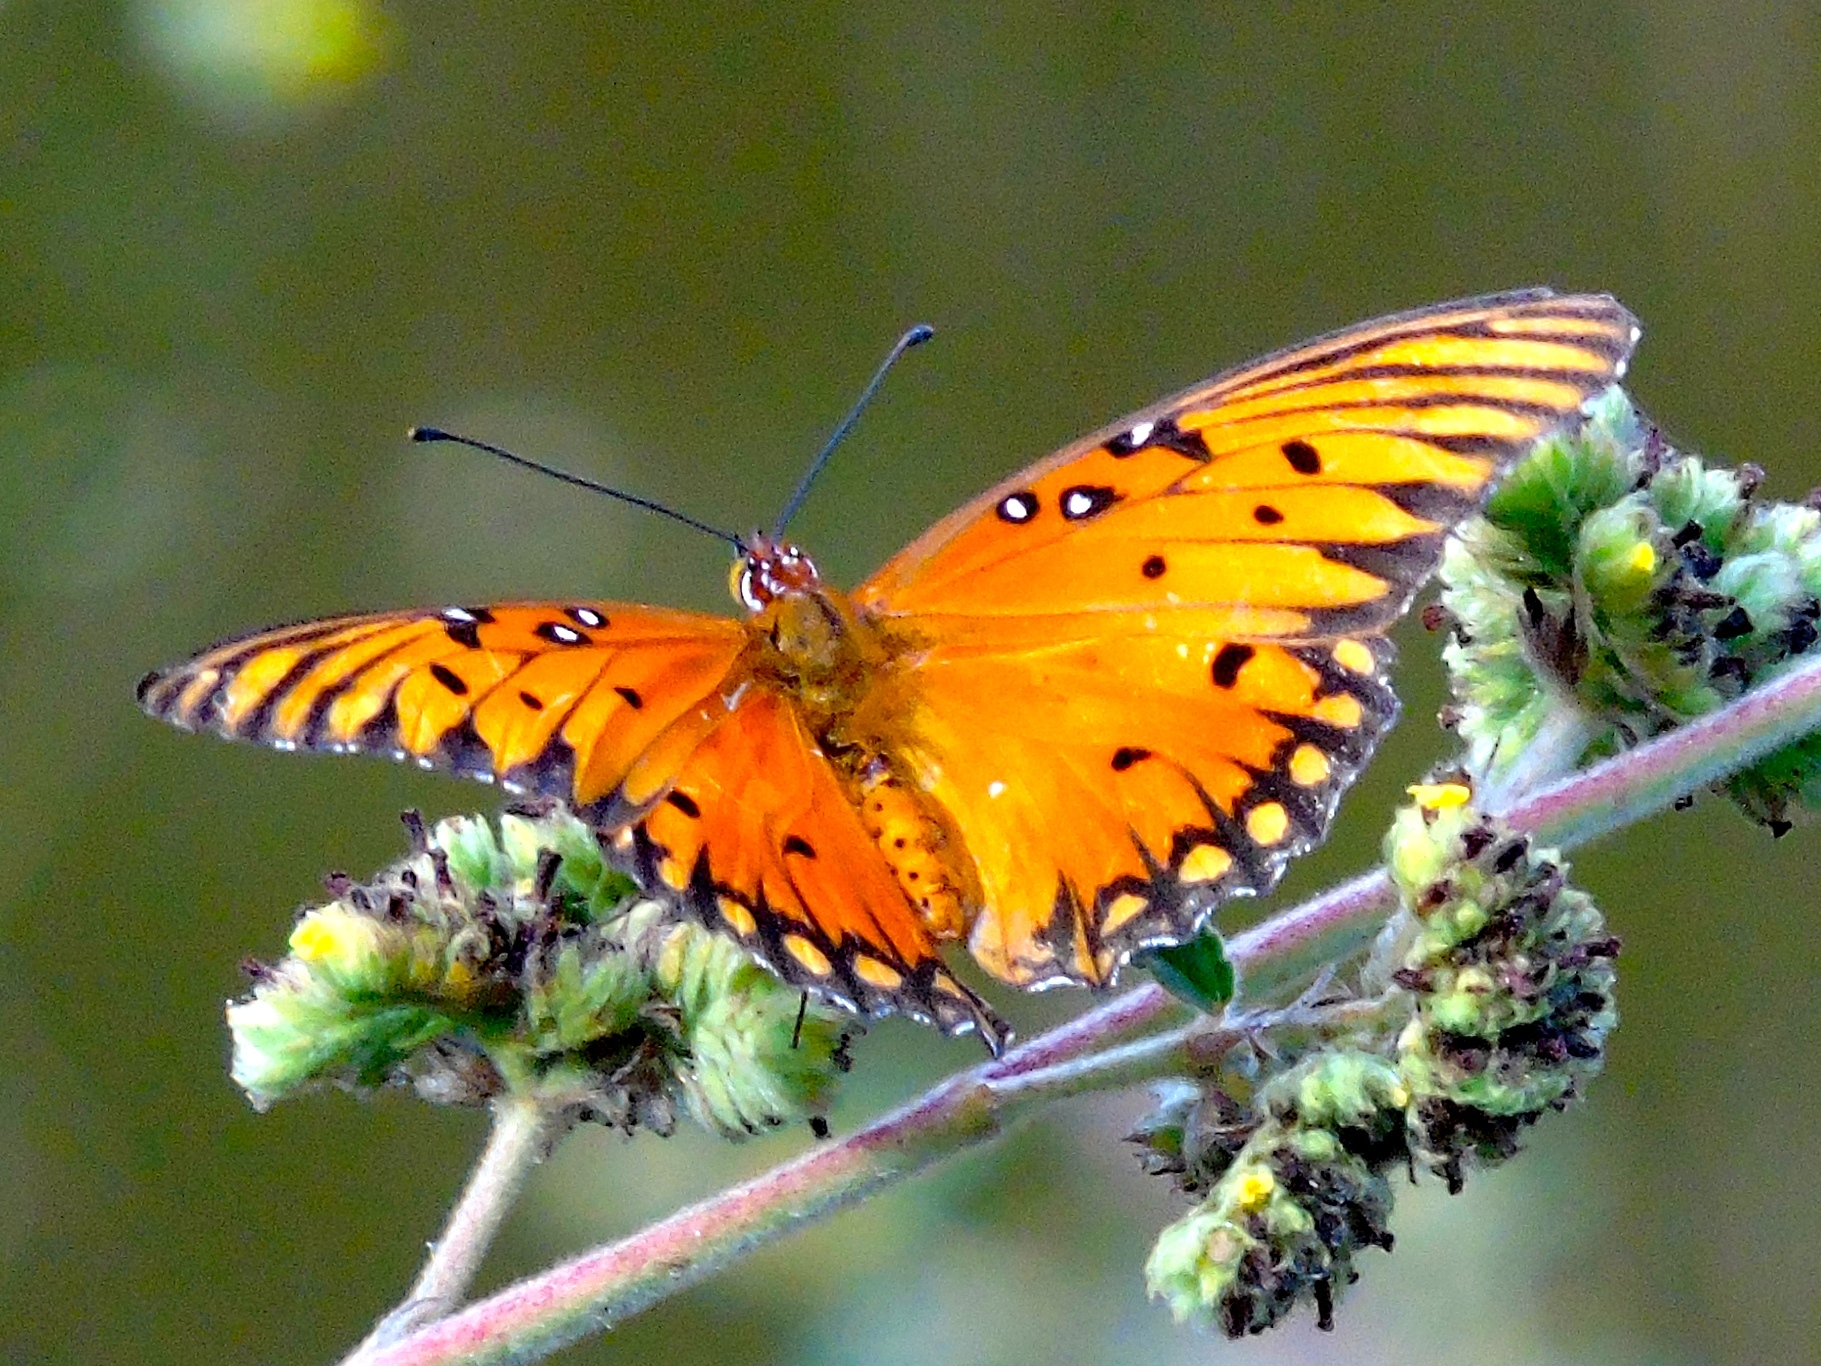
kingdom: Animalia
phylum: Arthropoda
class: Insecta
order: Lepidoptera
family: Nymphalidae
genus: Dione
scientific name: Dione vanillae
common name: Gulf fritillary
